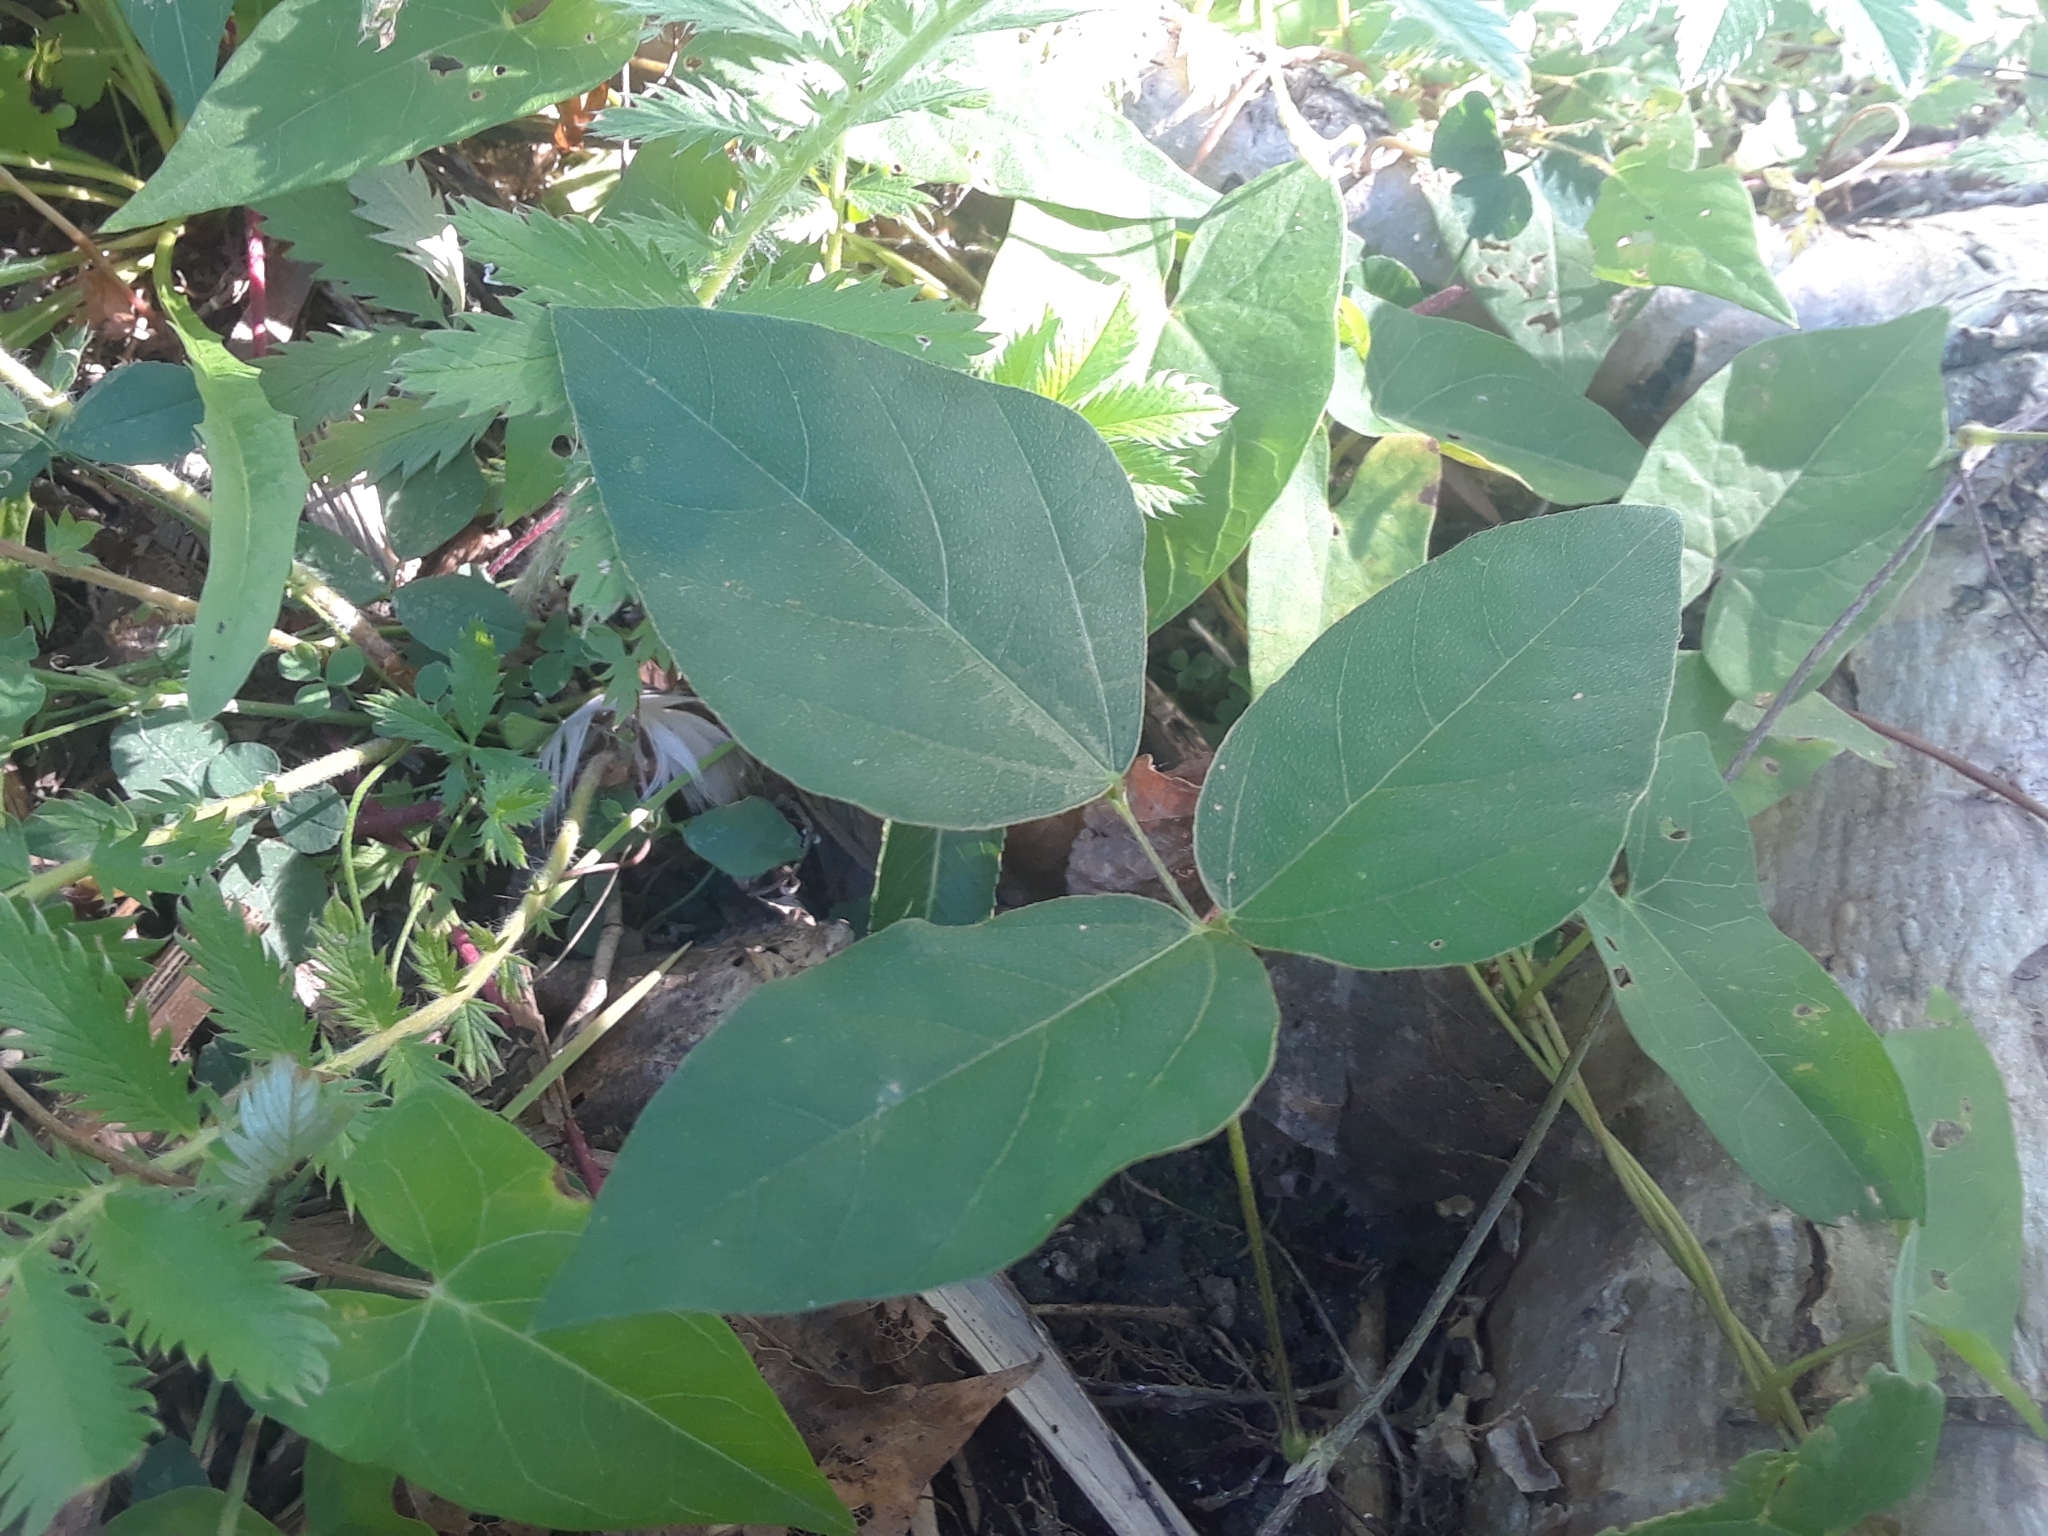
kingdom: Plantae
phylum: Tracheophyta
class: Magnoliopsida
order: Fabales
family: Fabaceae
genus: Amphicarpaea
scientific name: Amphicarpaea bracteata
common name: American hog peanut
